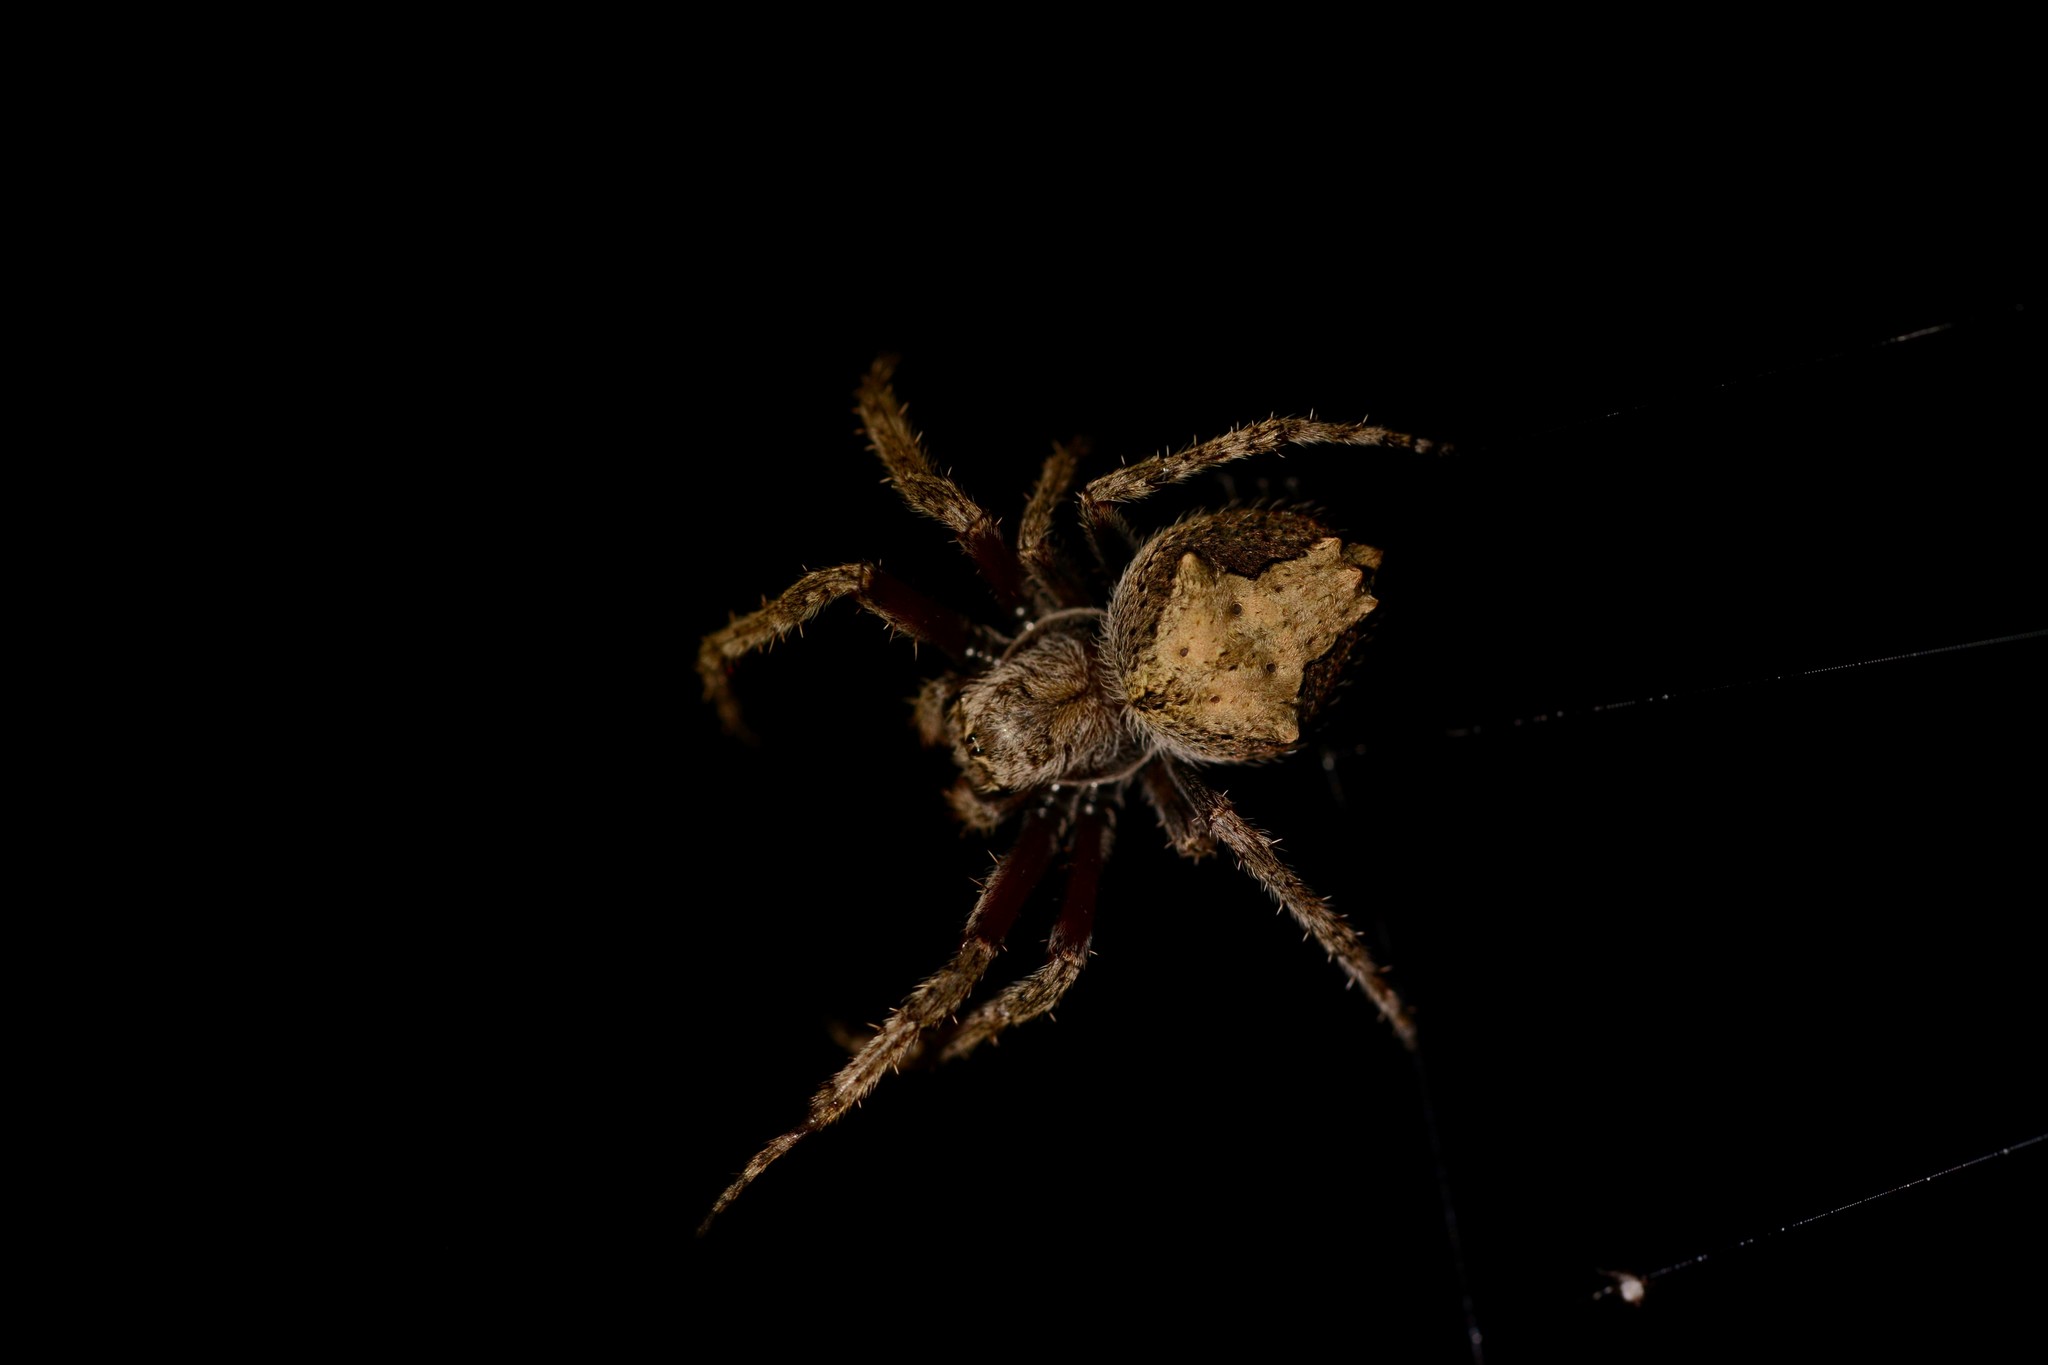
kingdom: Animalia
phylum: Arthropoda
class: Arachnida
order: Araneae
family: Araneidae
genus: Eriophora
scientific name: Eriophora pustulosa
